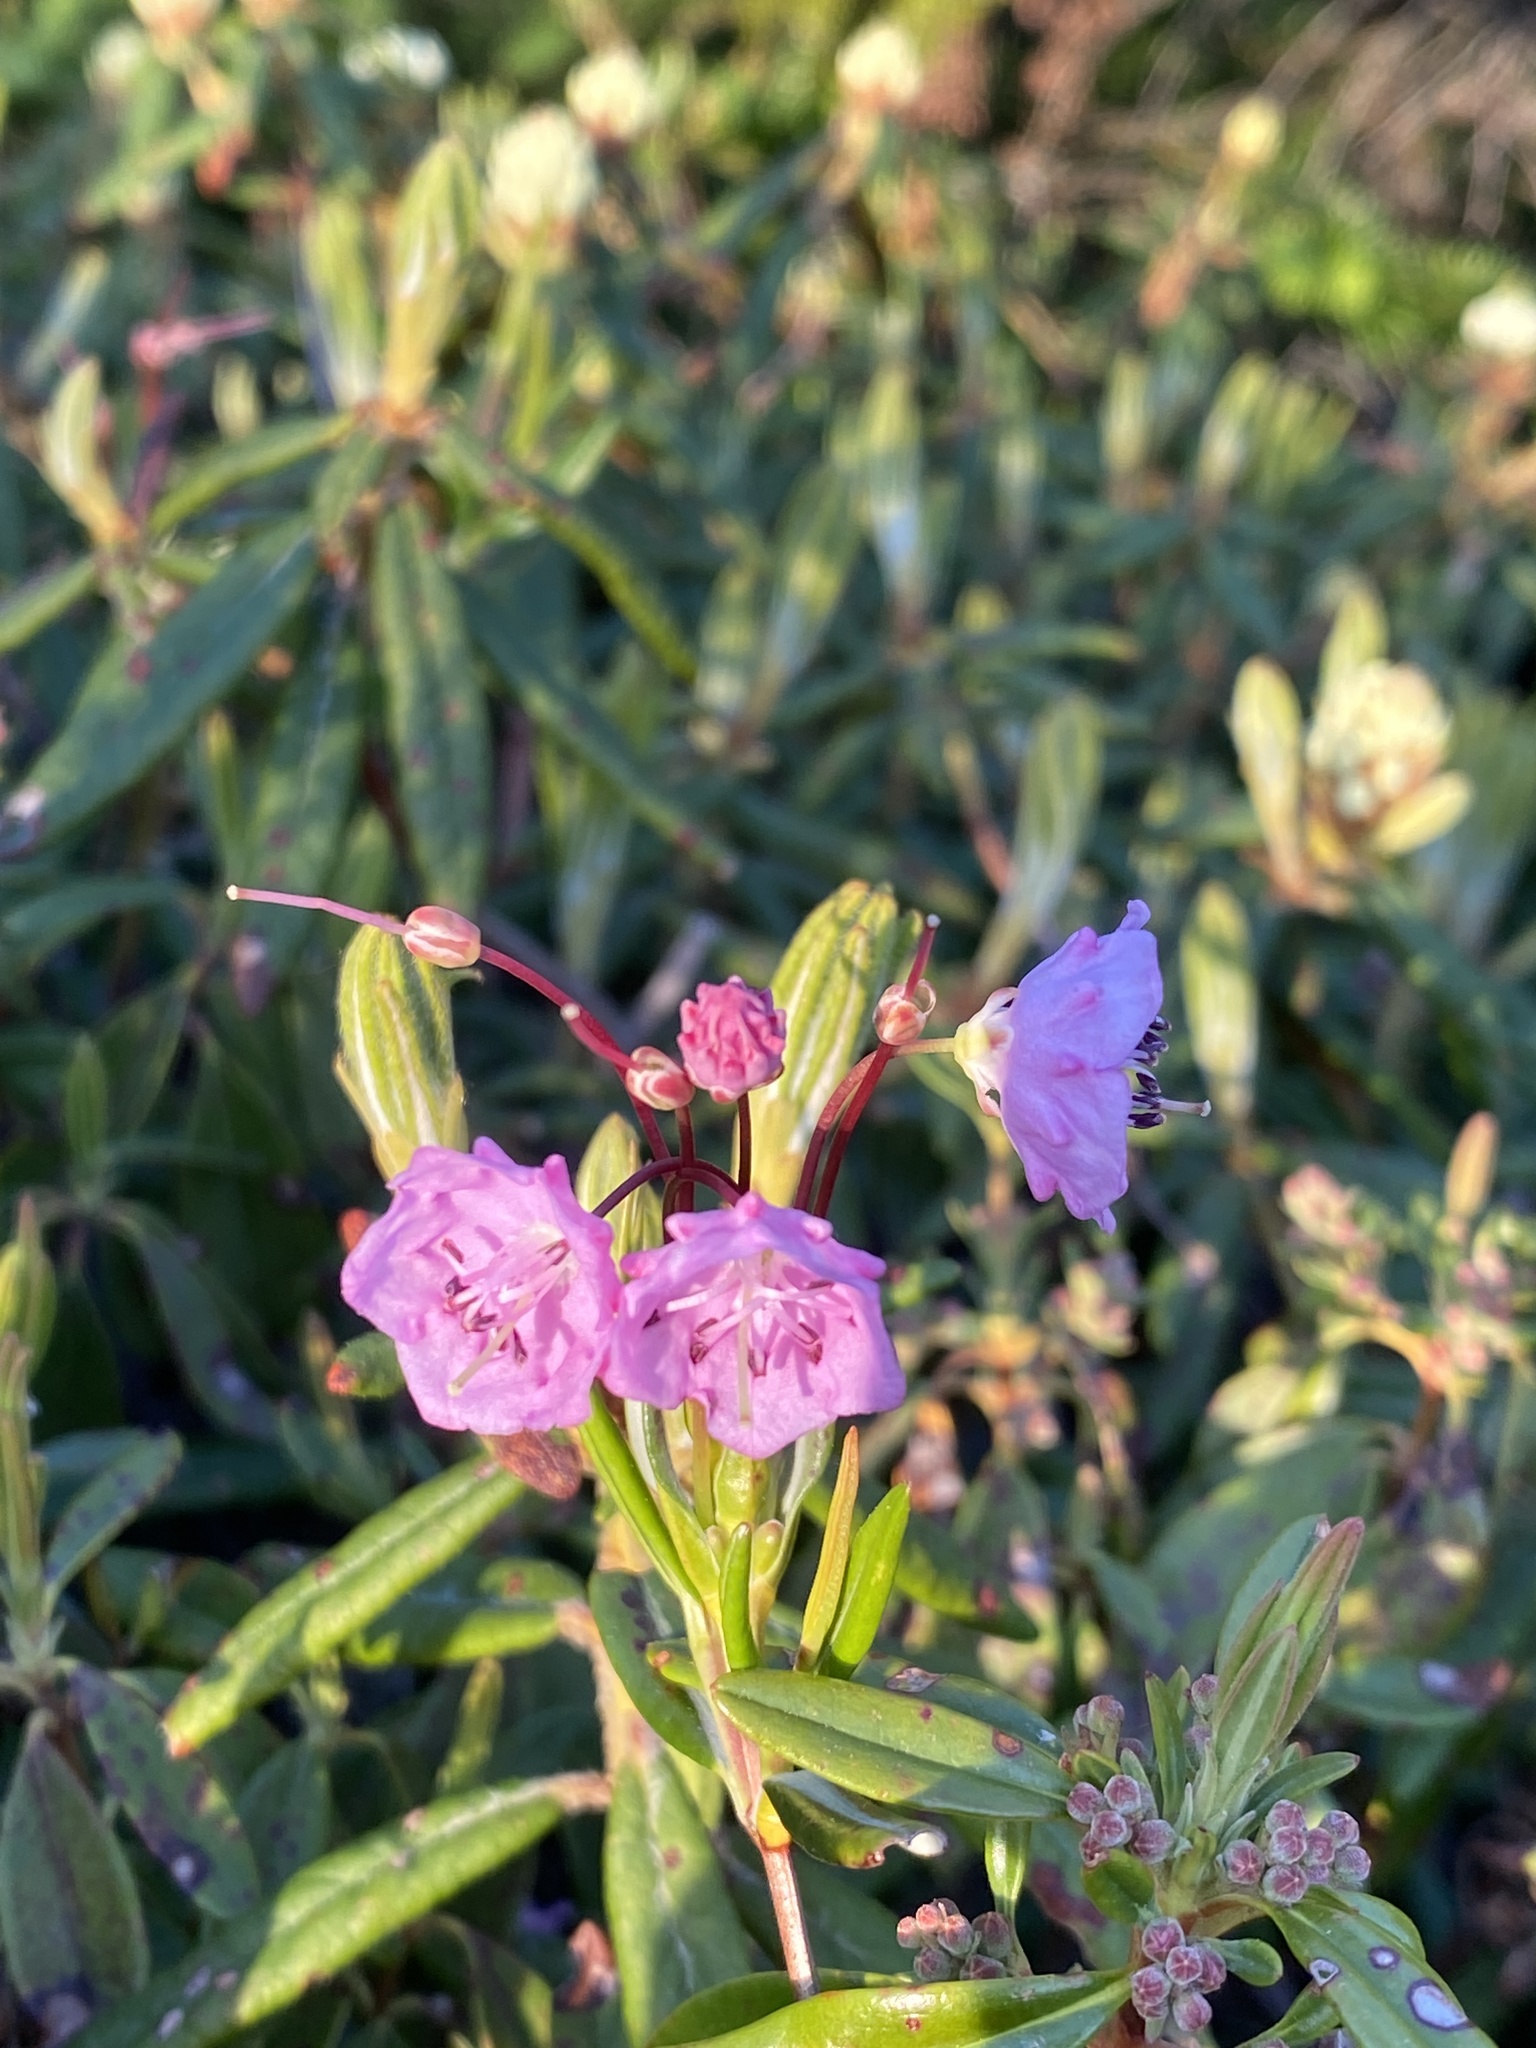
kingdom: Plantae
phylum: Tracheophyta
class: Magnoliopsida
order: Ericales
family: Ericaceae
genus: Kalmia
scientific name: Kalmia polifolia
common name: Bog-laurel
